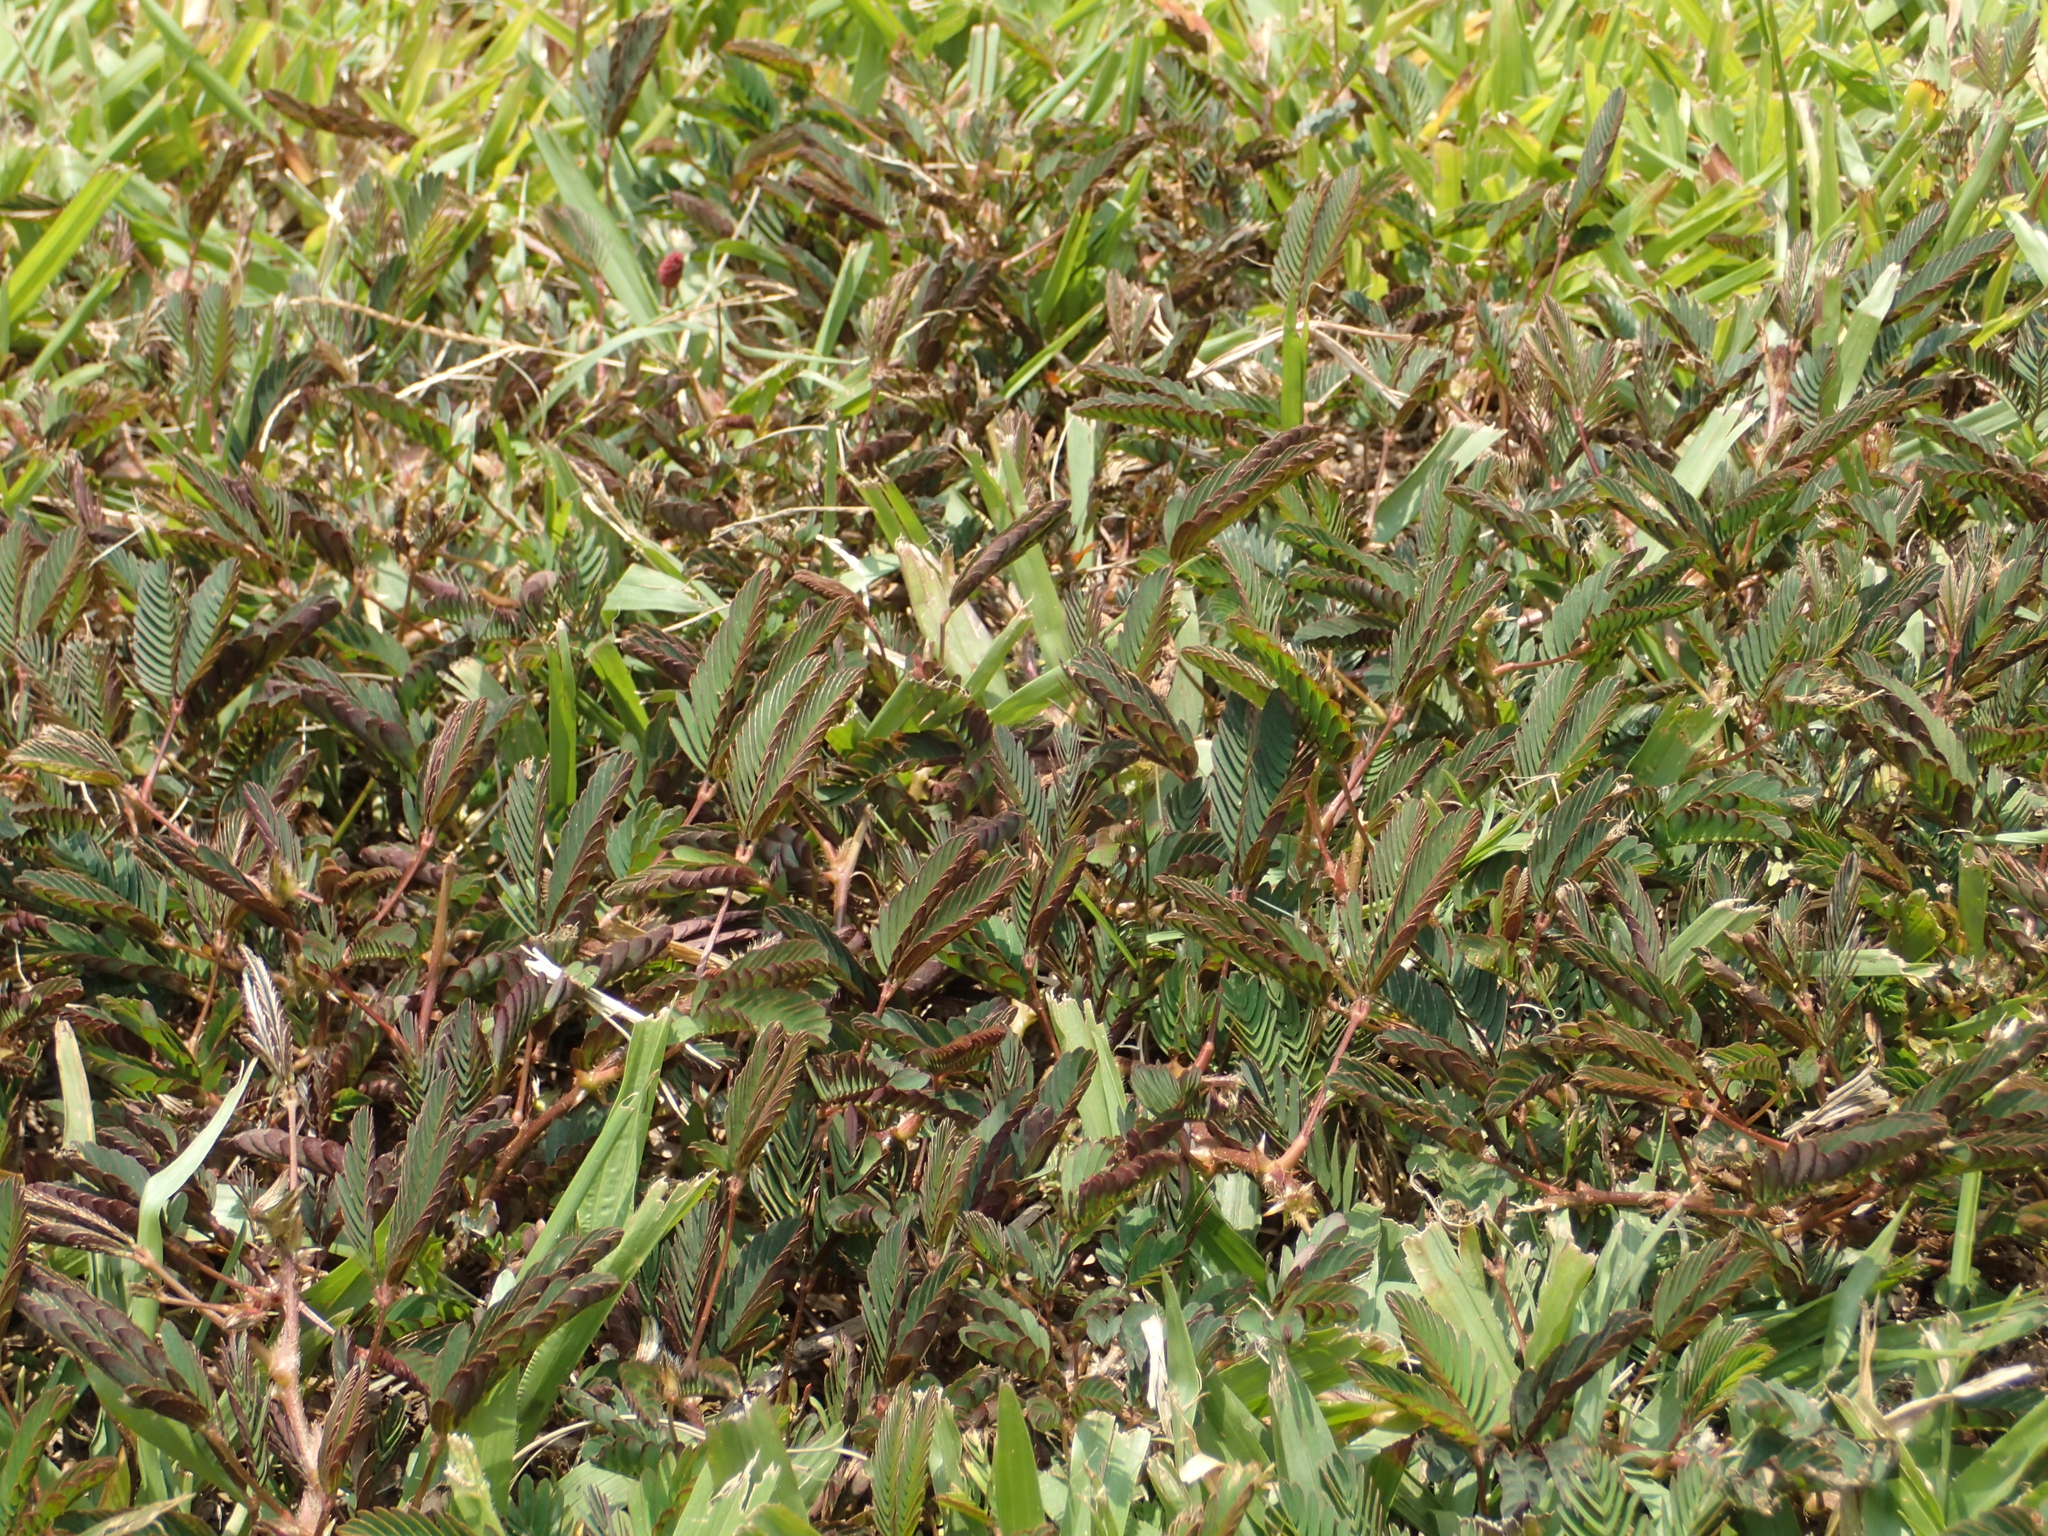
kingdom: Plantae
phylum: Tracheophyta
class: Magnoliopsida
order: Fabales
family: Fabaceae
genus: Mimosa
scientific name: Mimosa pudica
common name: Sensitive plant
